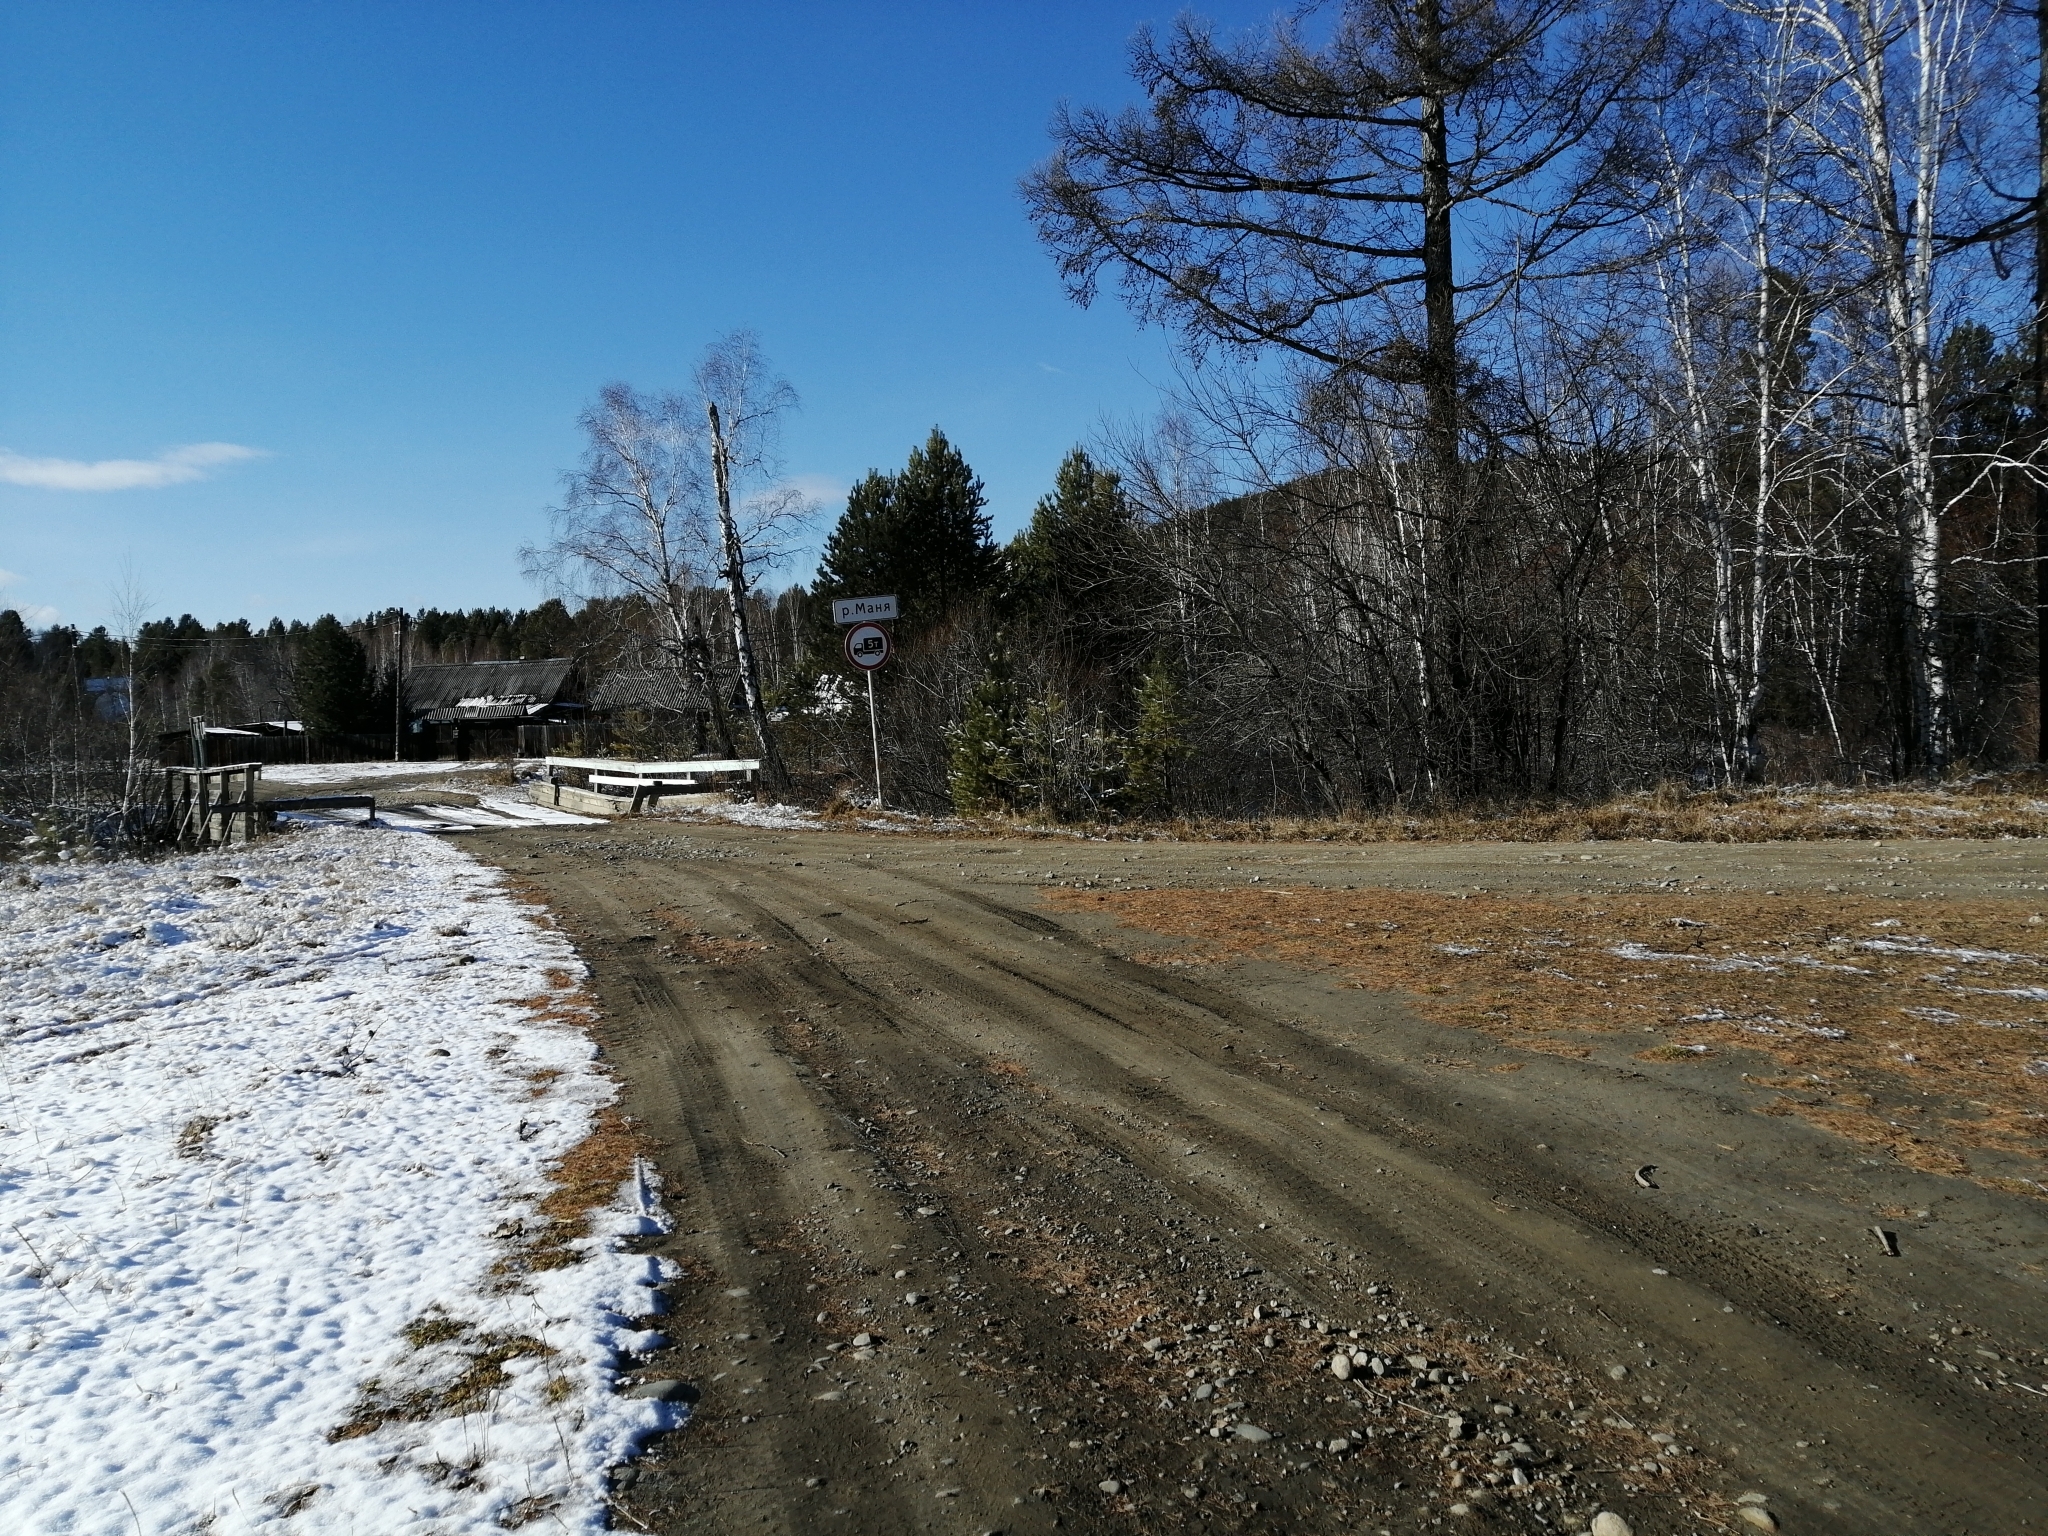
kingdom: Plantae
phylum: Tracheophyta
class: Pinopsida
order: Pinales
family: Pinaceae
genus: Larix
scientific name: Larix sibirica
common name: Siberian larch
